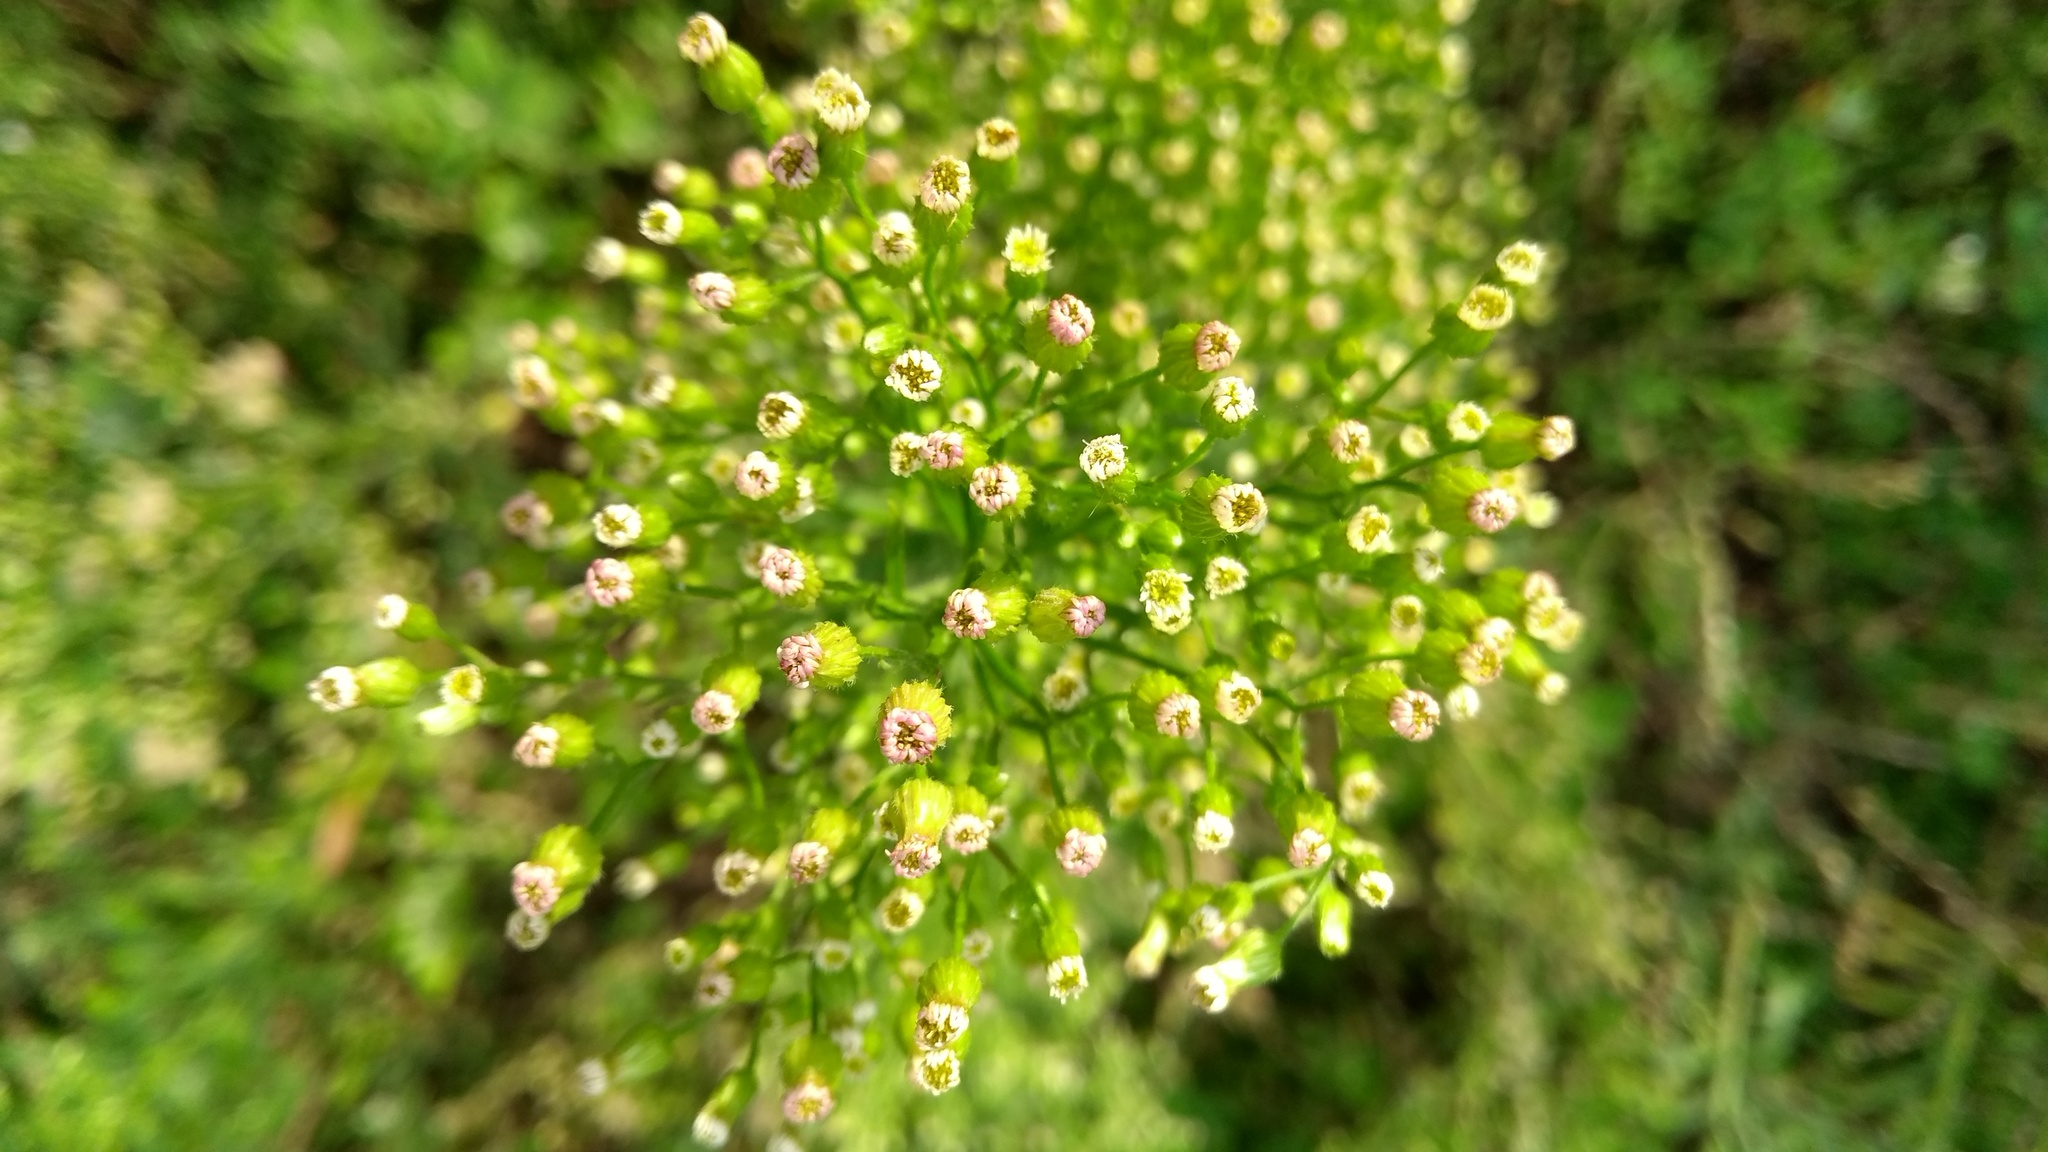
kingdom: Plantae
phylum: Tracheophyta
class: Magnoliopsida
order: Asterales
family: Asteraceae
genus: Erigeron
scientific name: Erigeron canadensis
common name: Canadian fleabane
